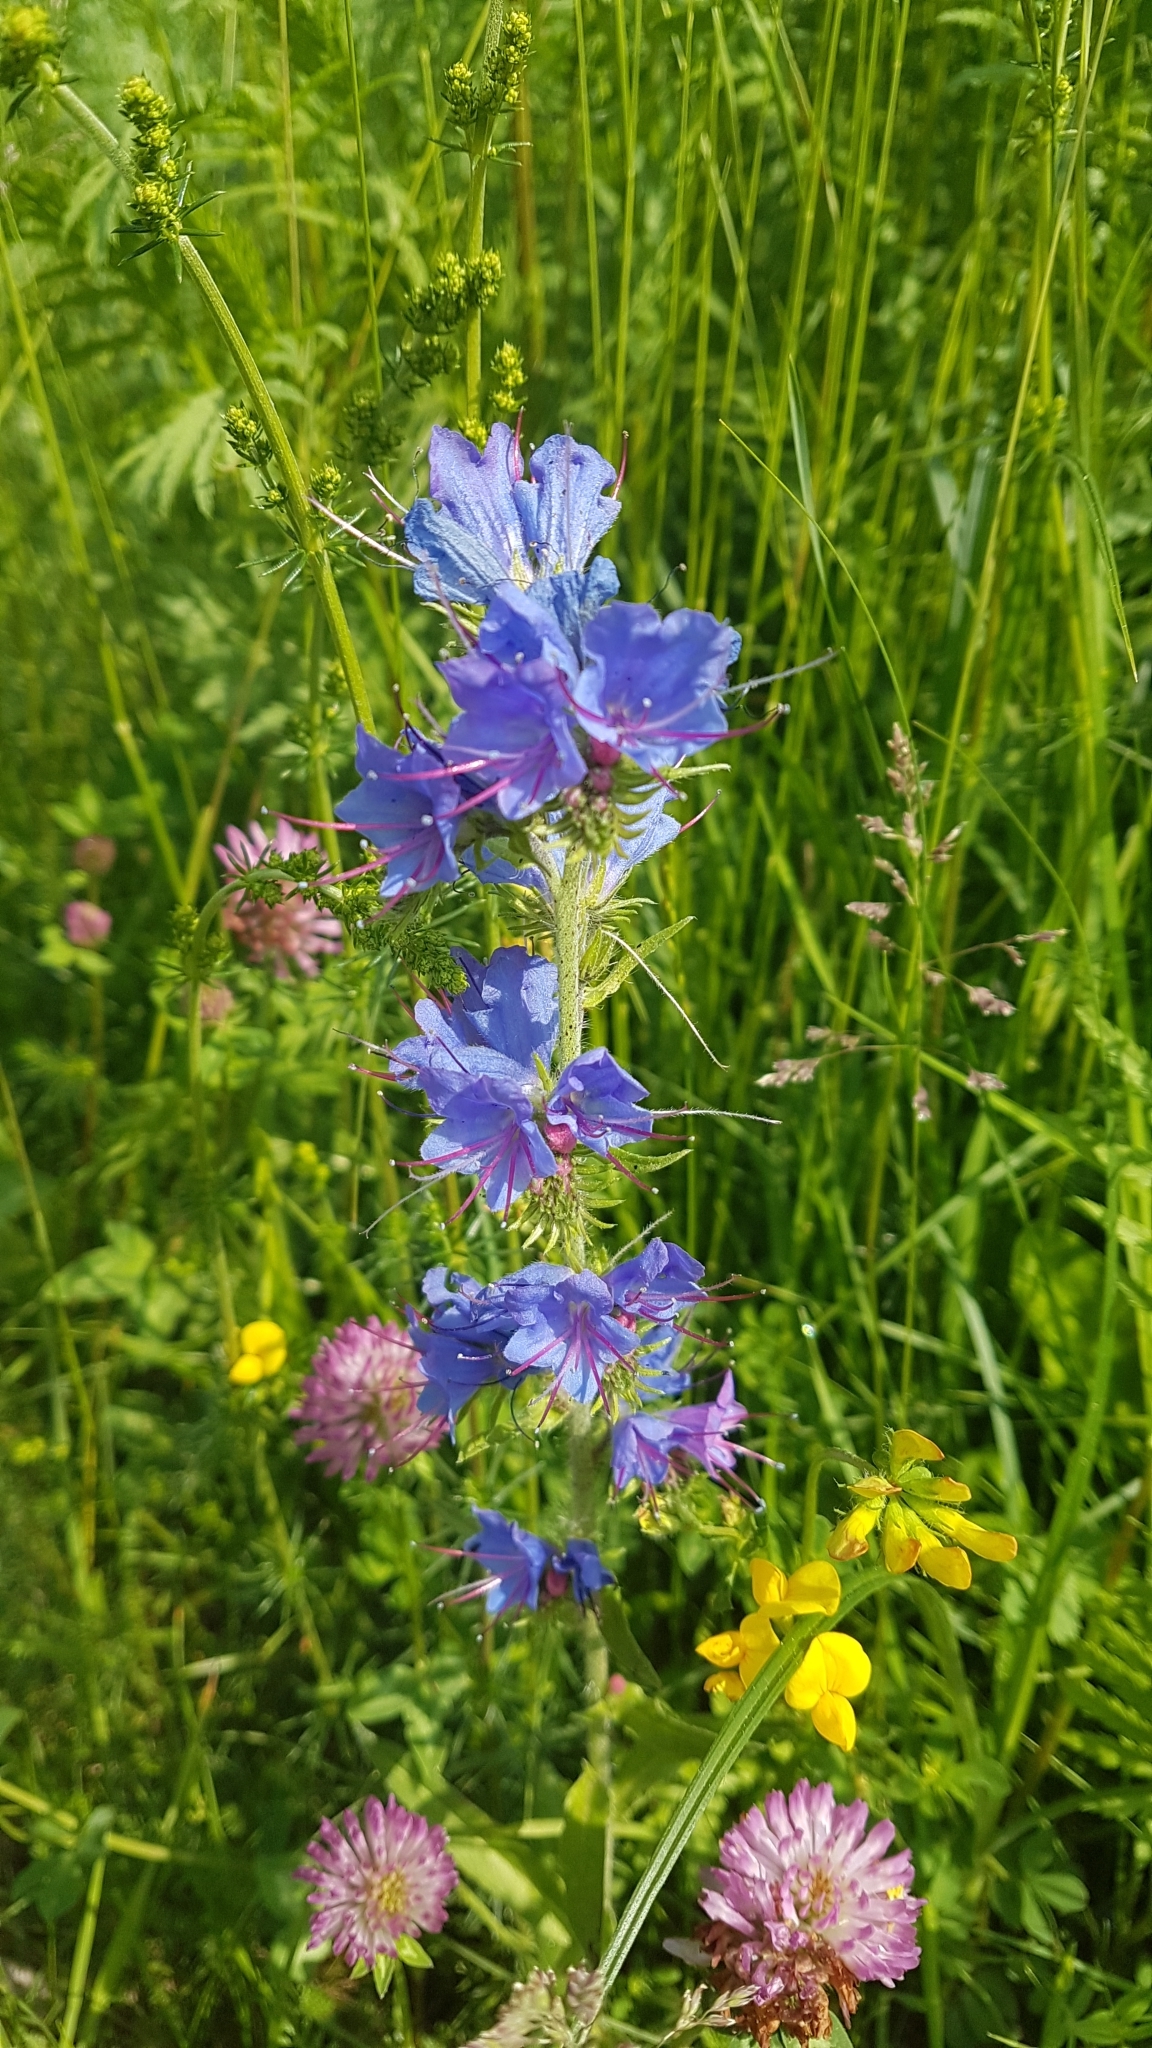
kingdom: Plantae
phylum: Tracheophyta
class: Magnoliopsida
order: Boraginales
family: Boraginaceae
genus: Echium
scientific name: Echium vulgare
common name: Common viper's bugloss
